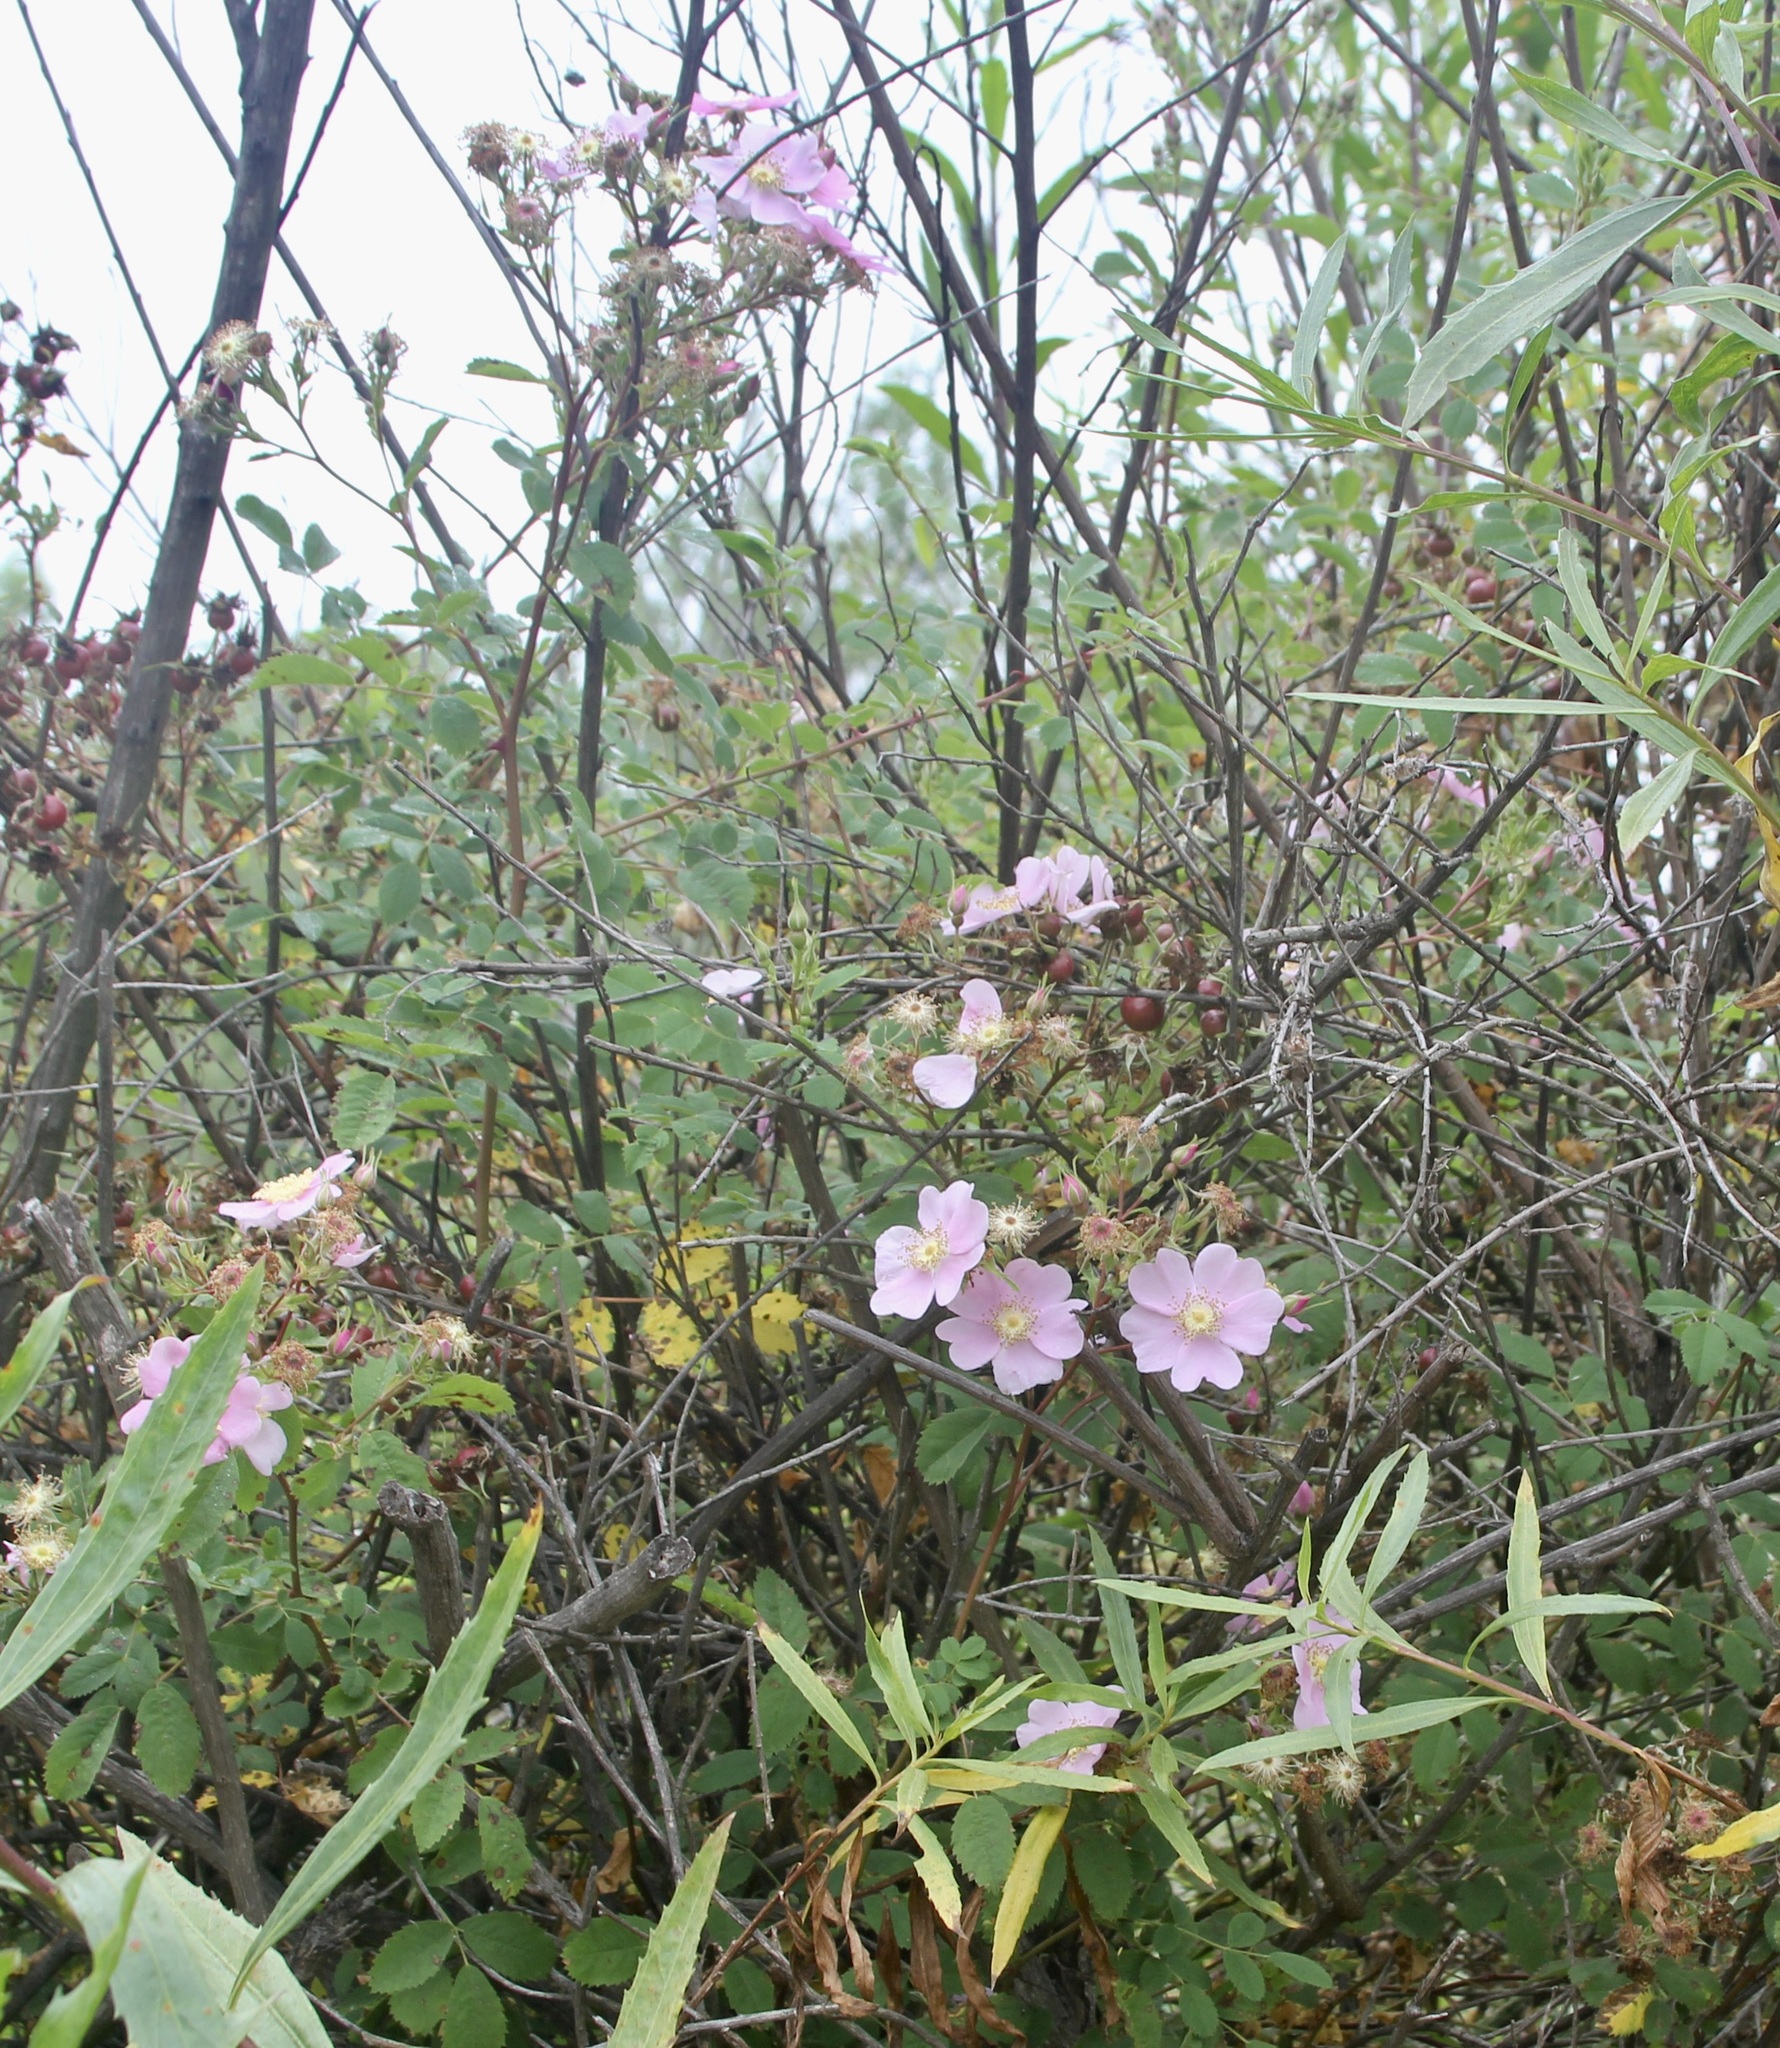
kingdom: Plantae
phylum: Tracheophyta
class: Magnoliopsida
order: Rosales
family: Rosaceae
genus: Rosa
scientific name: Rosa californica
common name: California rose
